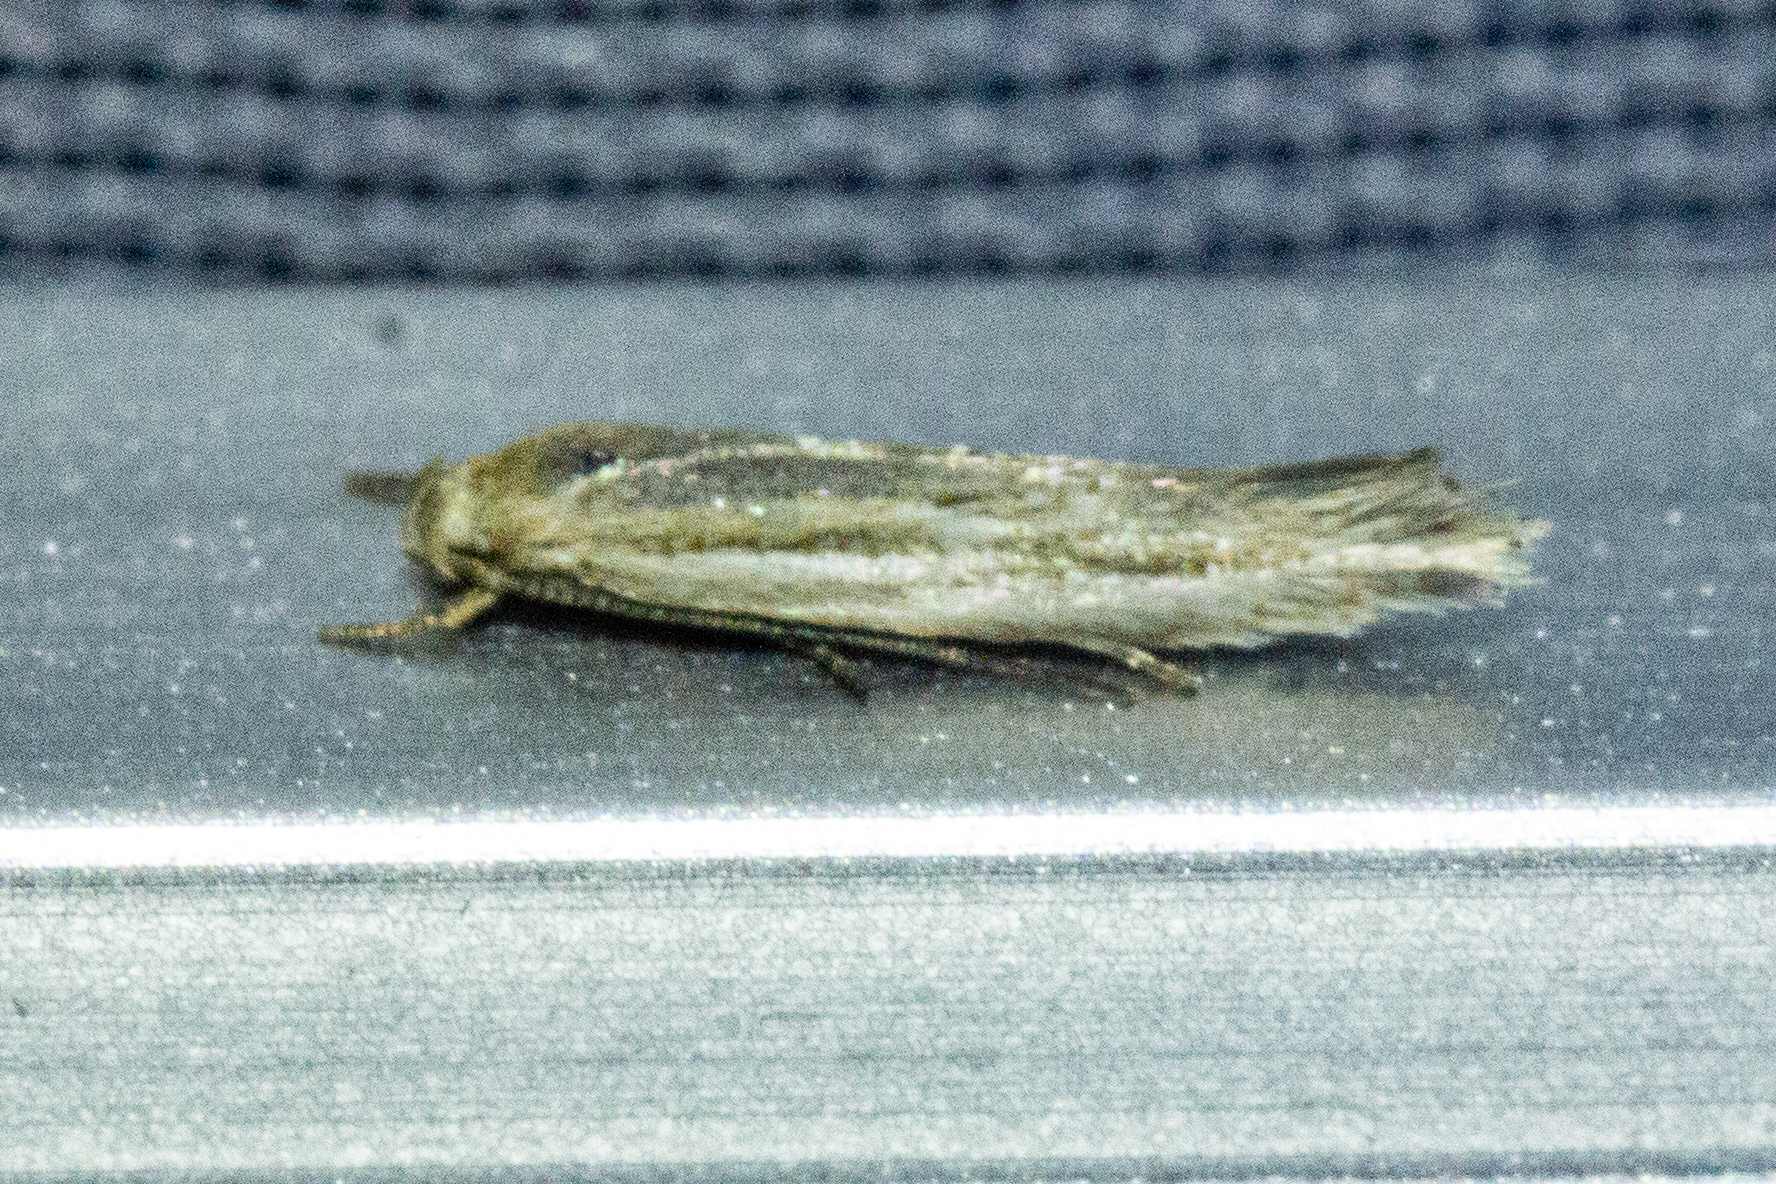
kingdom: Animalia
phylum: Arthropoda
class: Insecta
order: Lepidoptera
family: Elachistidae
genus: Elachista
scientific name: Elachista thallophora
